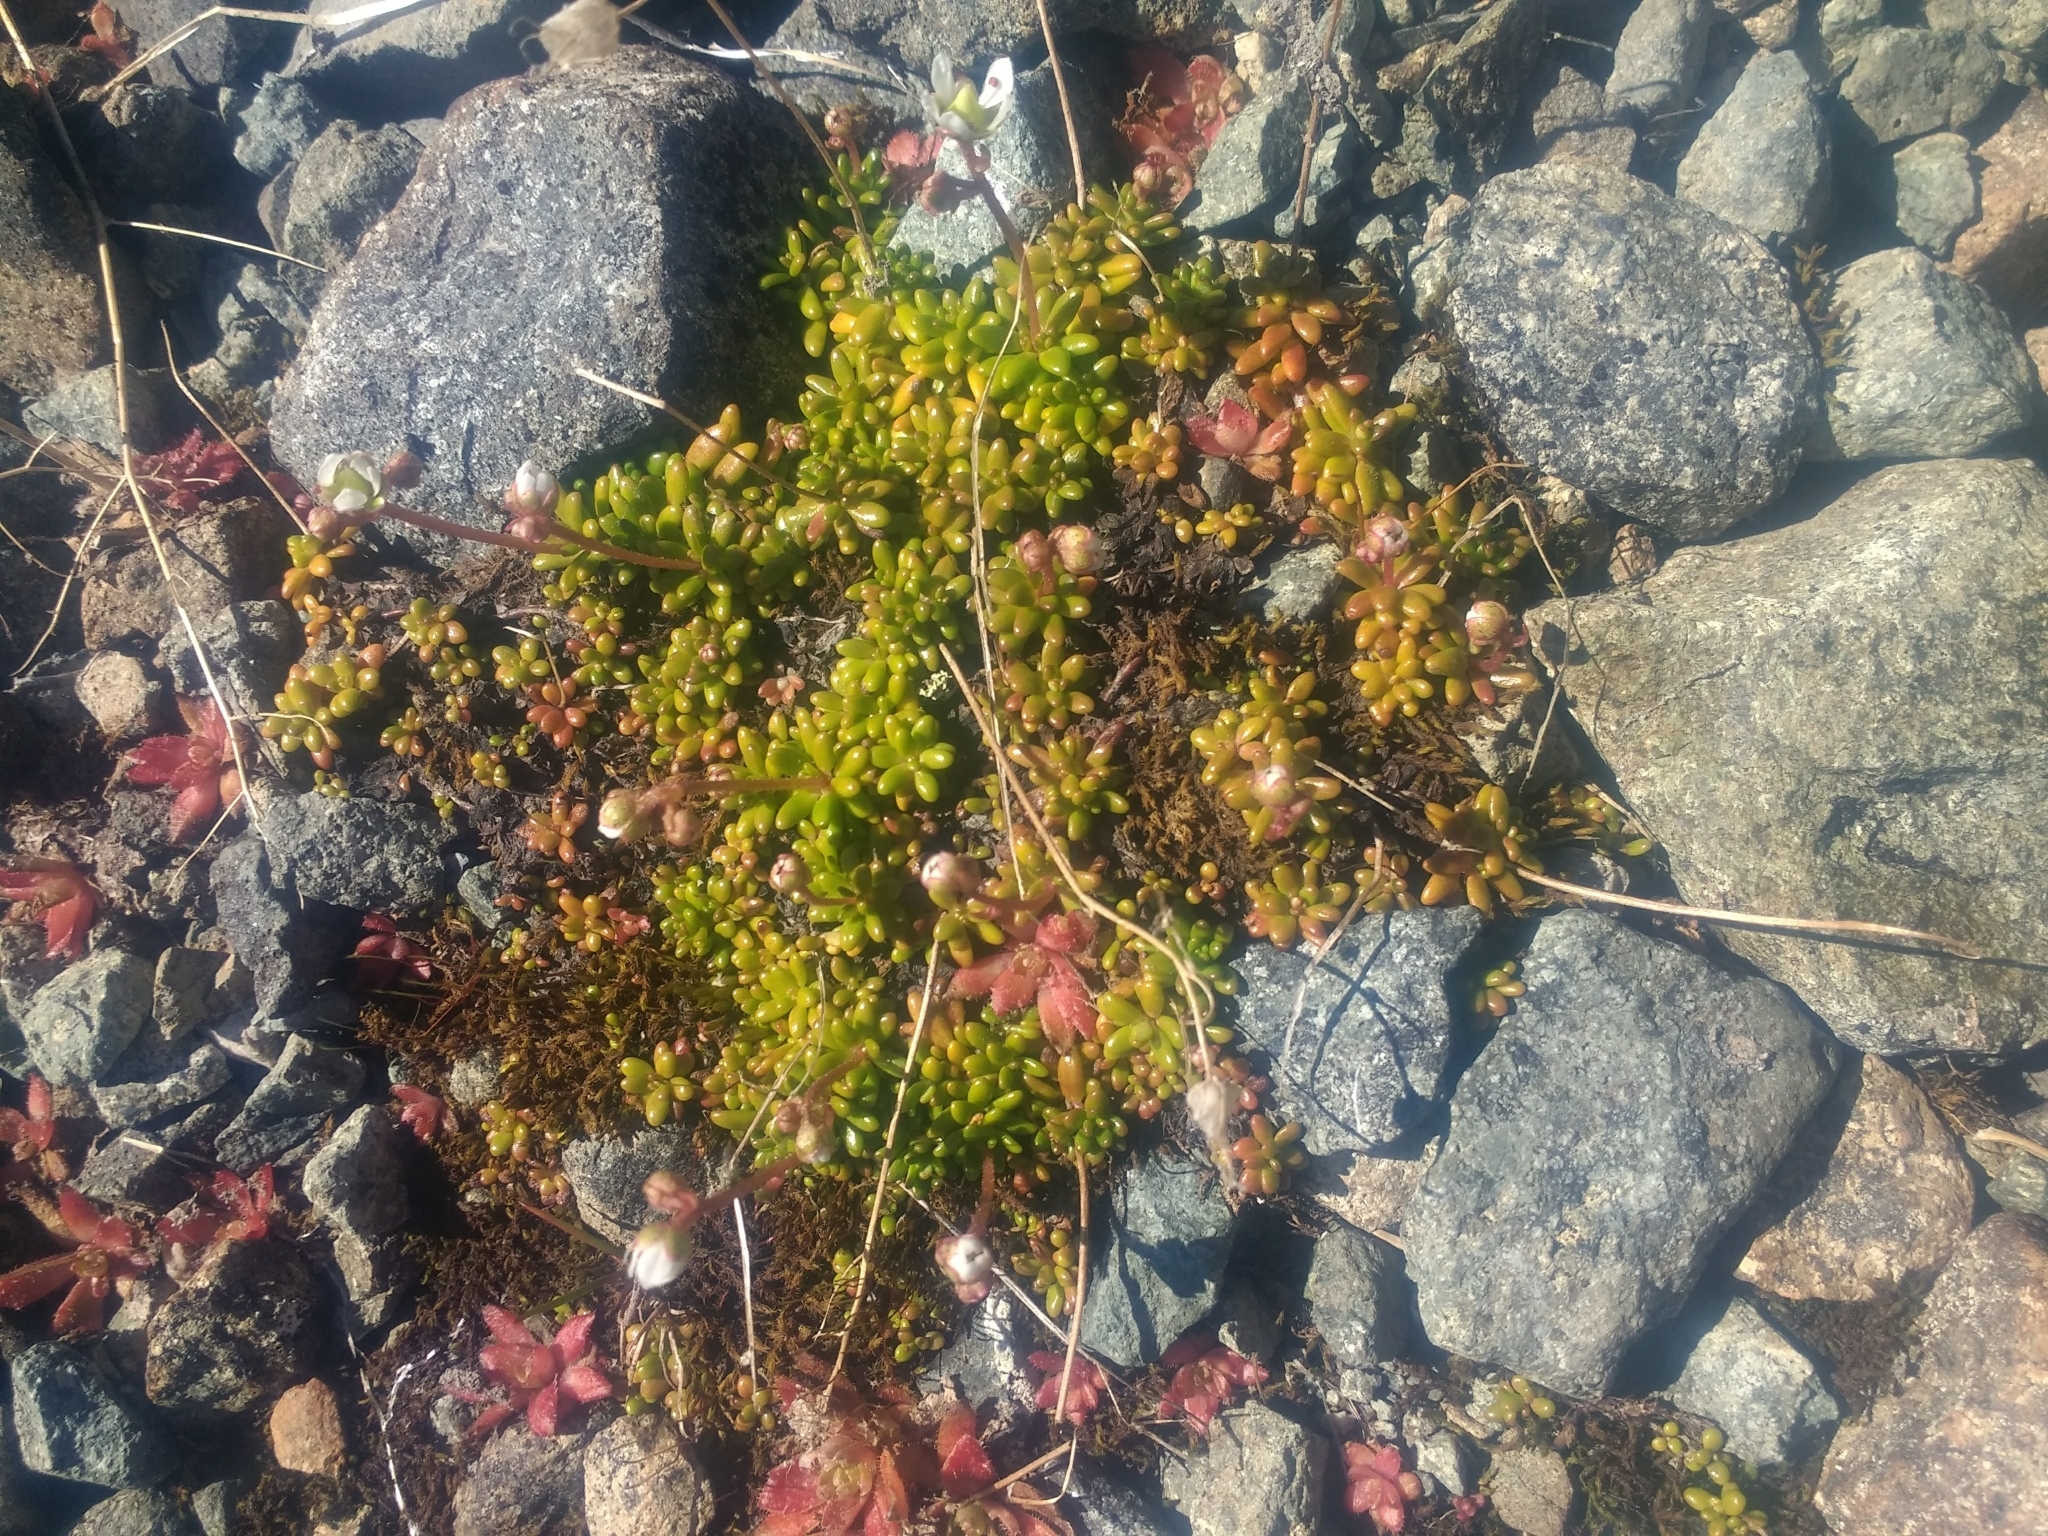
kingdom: Plantae
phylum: Tracheophyta
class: Magnoliopsida
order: Saxifragales
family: Saxifragaceae
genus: Micranthes
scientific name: Micranthes tolmiei
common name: Tolmie's saxifrage
